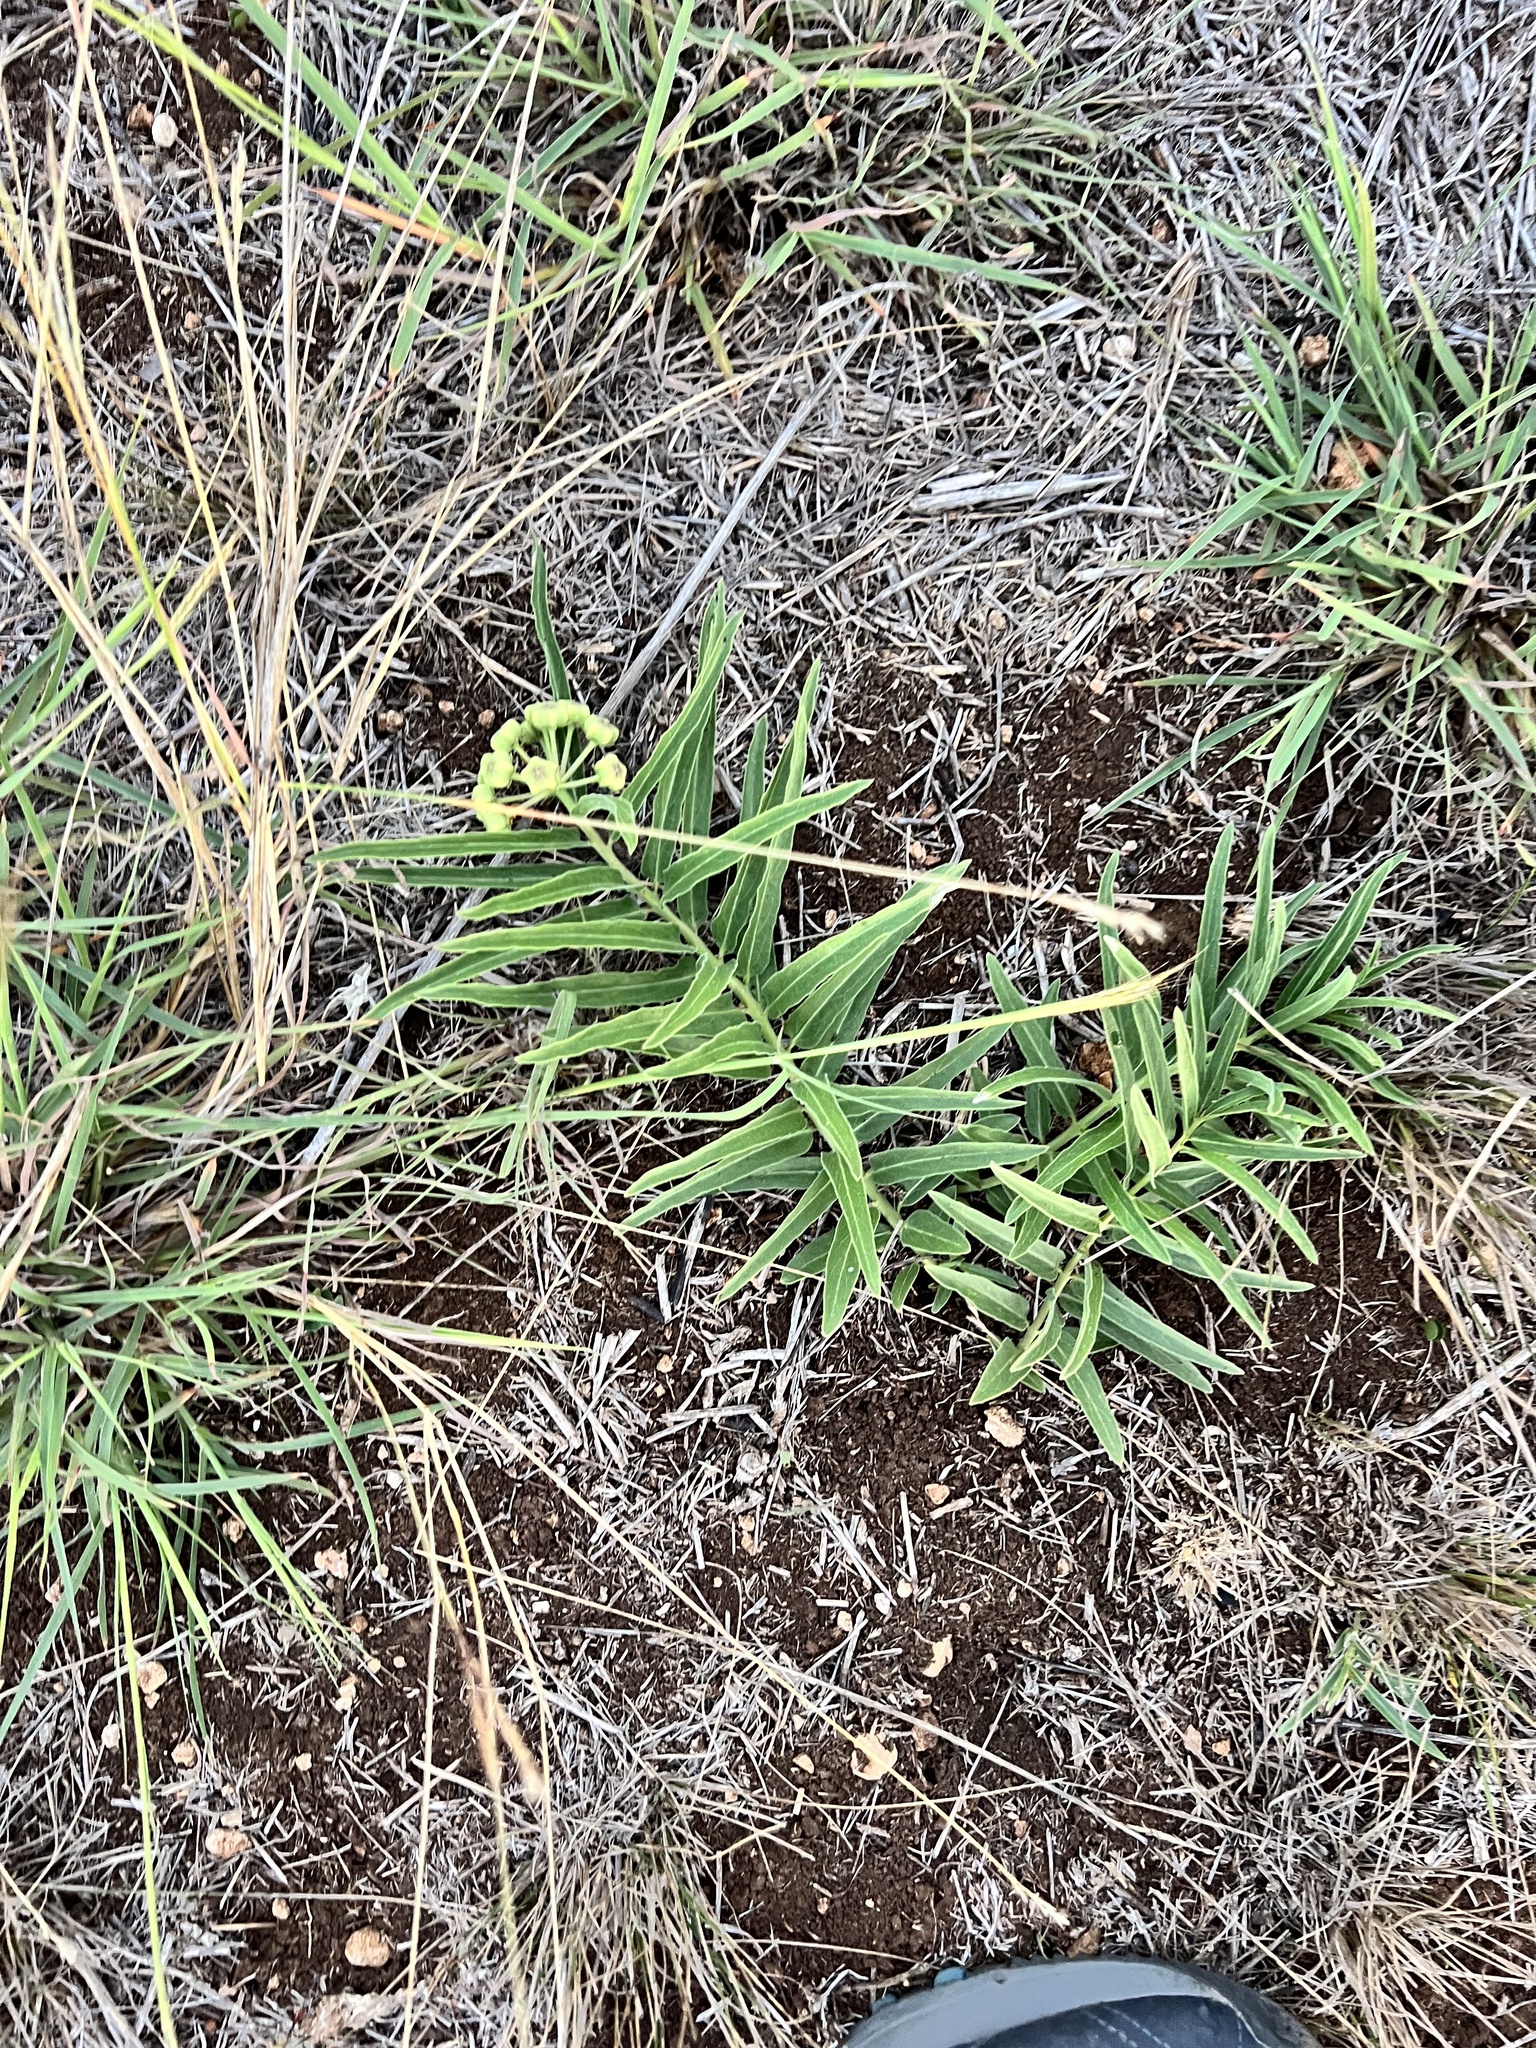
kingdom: Plantae
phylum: Tracheophyta
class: Magnoliopsida
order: Gentianales
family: Apocynaceae
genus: Asclepias
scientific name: Asclepias asperula
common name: Antelope horns
